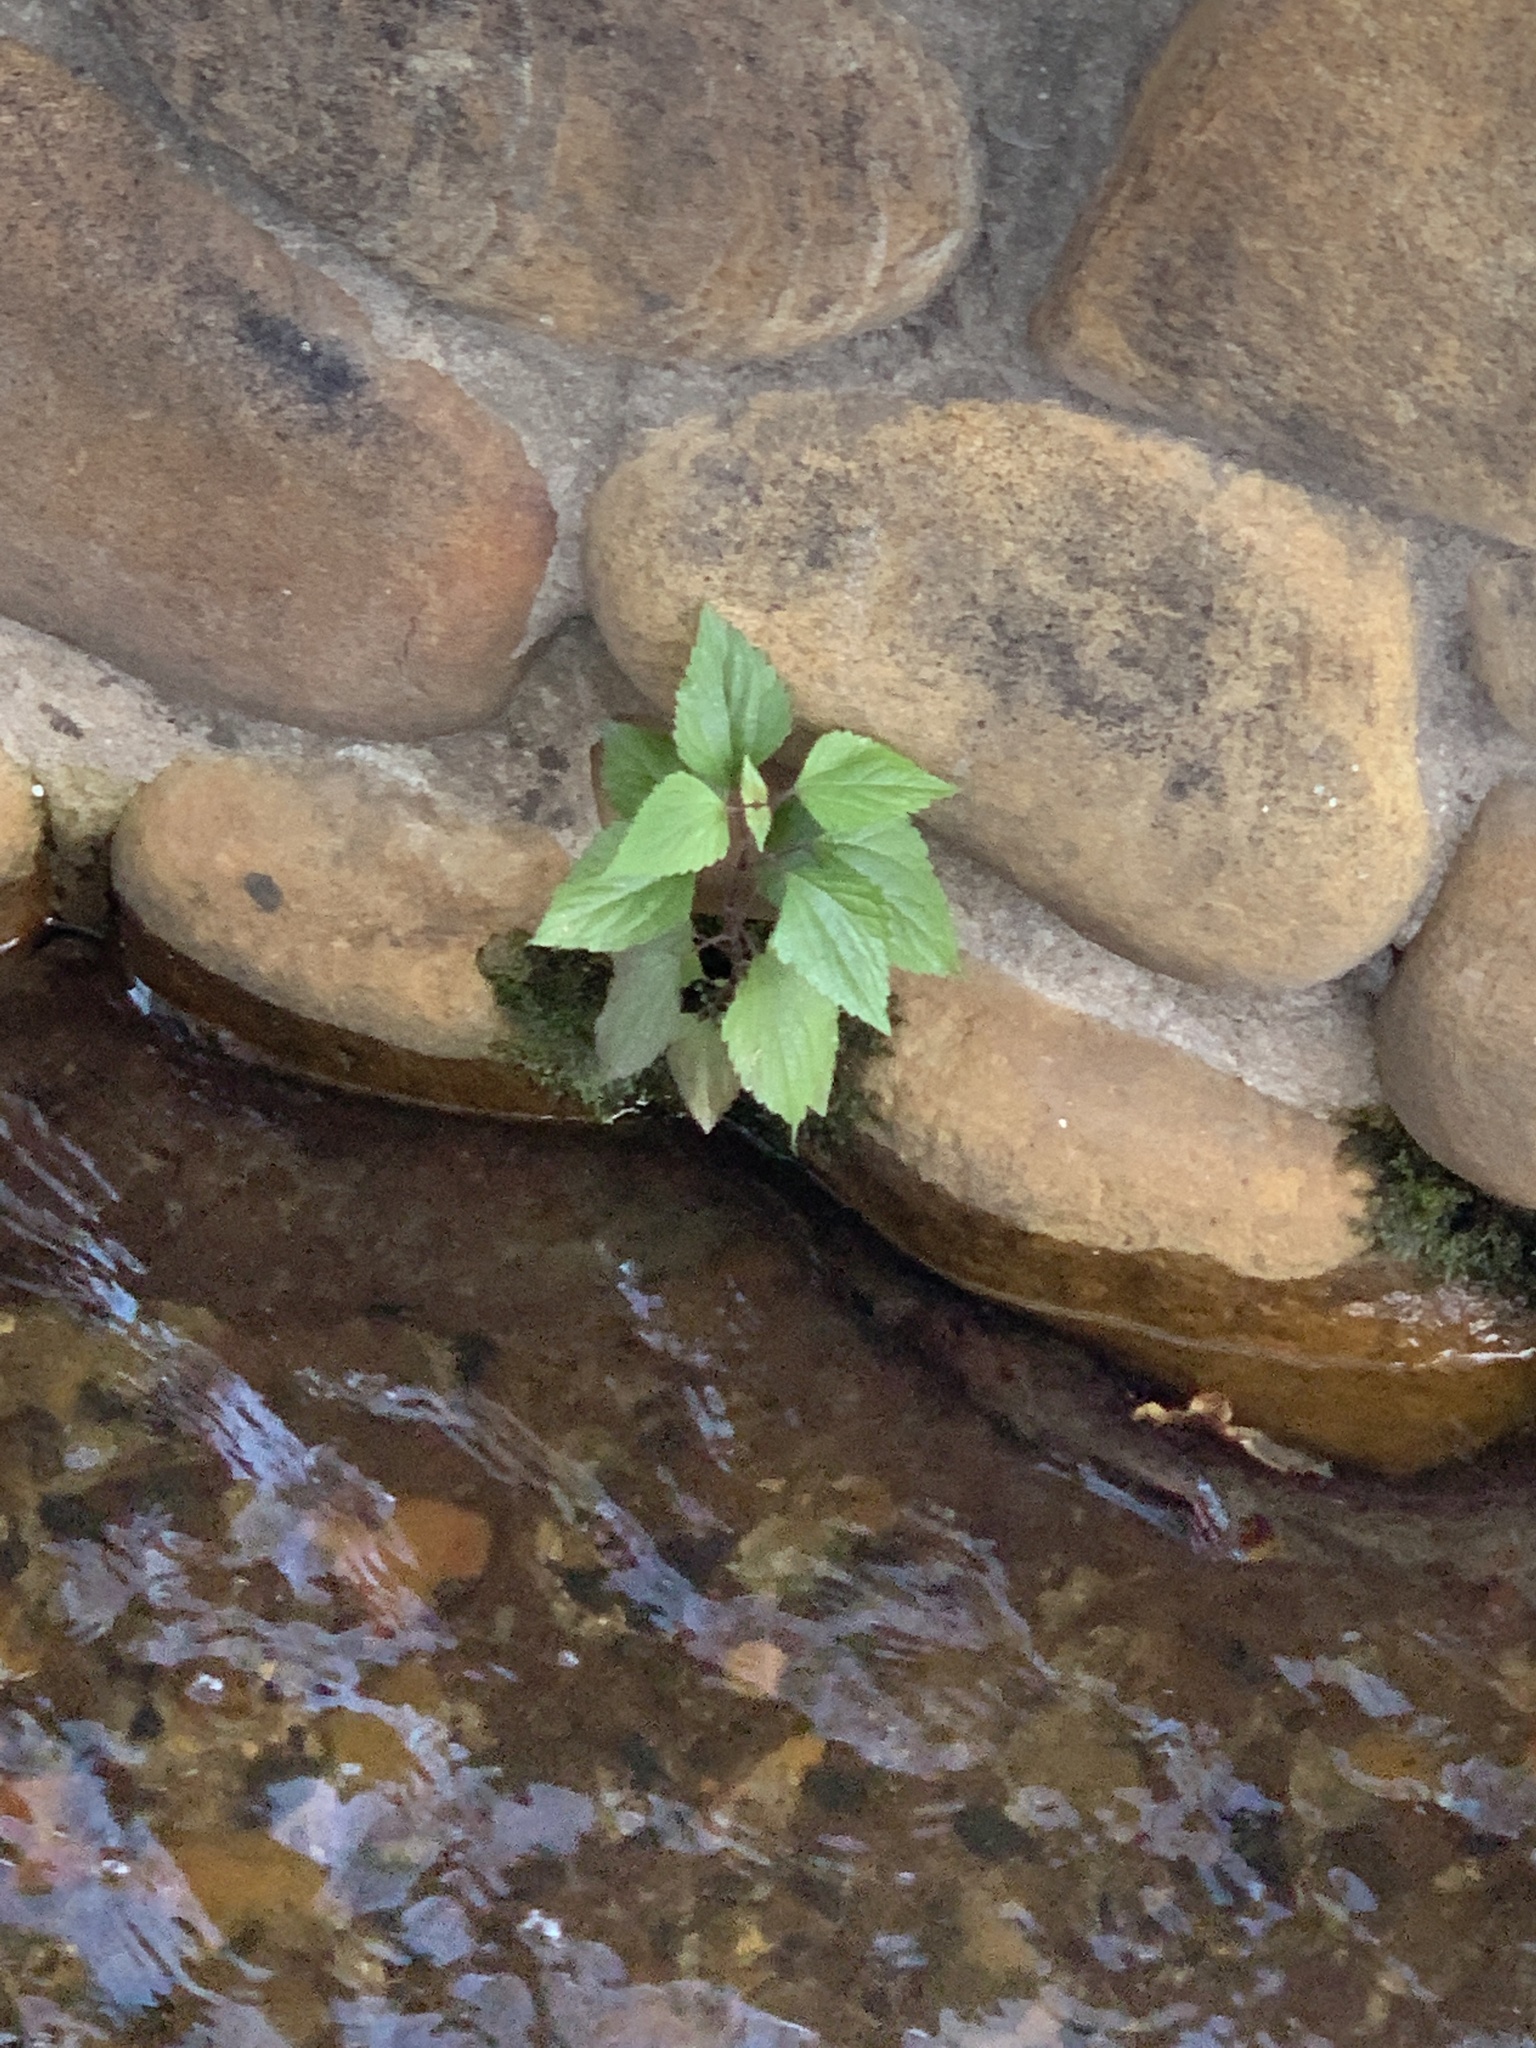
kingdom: Plantae
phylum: Tracheophyta
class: Magnoliopsida
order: Asterales
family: Asteraceae
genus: Ageratina
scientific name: Ageratina adenophora
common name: Sticky snakeroot
